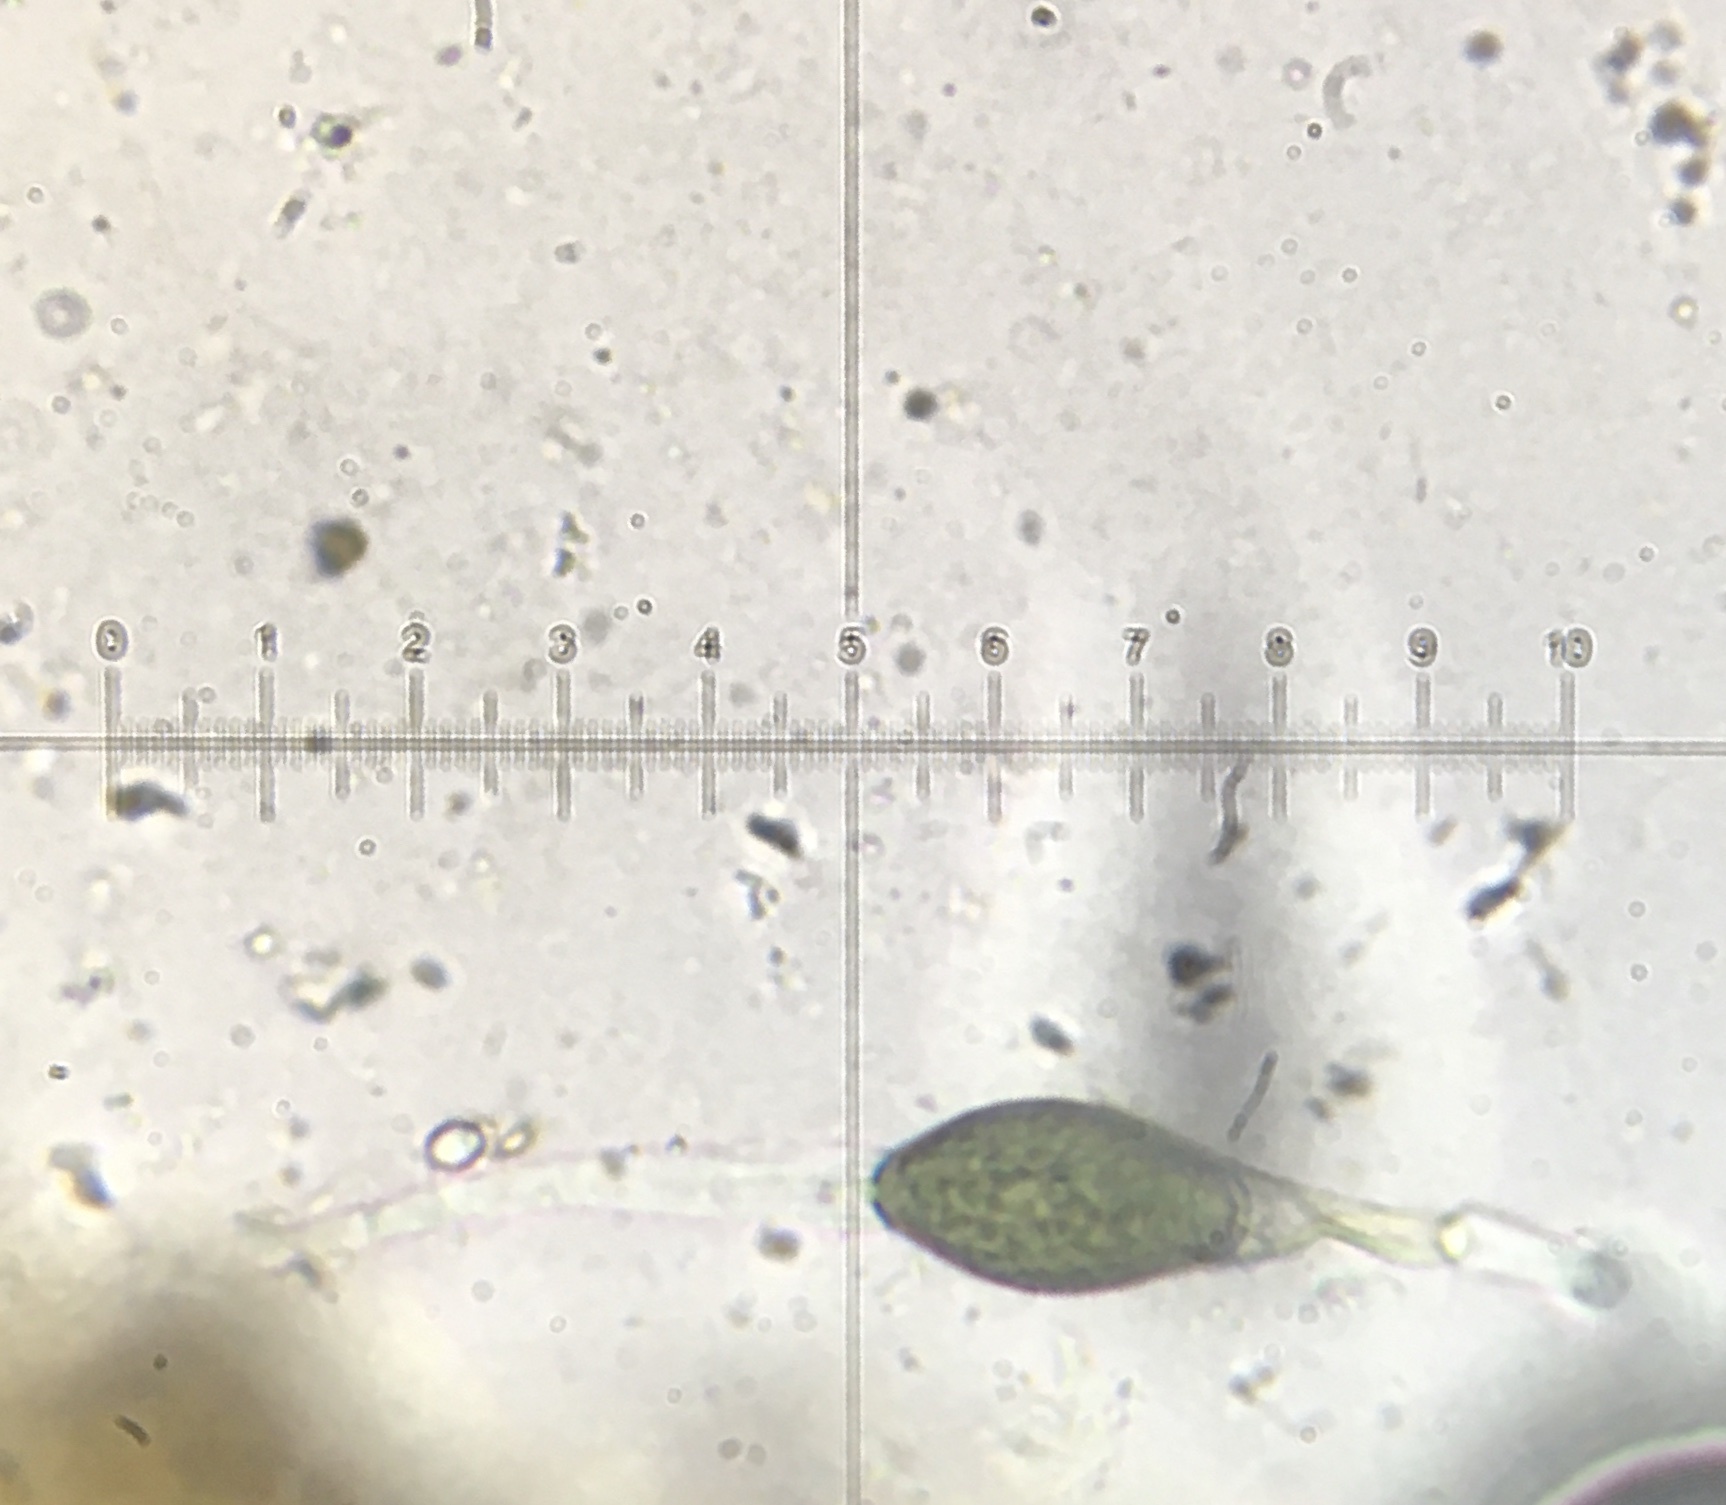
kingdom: Fungi
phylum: Ascomycota
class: Sordariomycetes
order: Sordariales
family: Podosporaceae
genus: Podospora
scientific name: Podospora appendiculata
